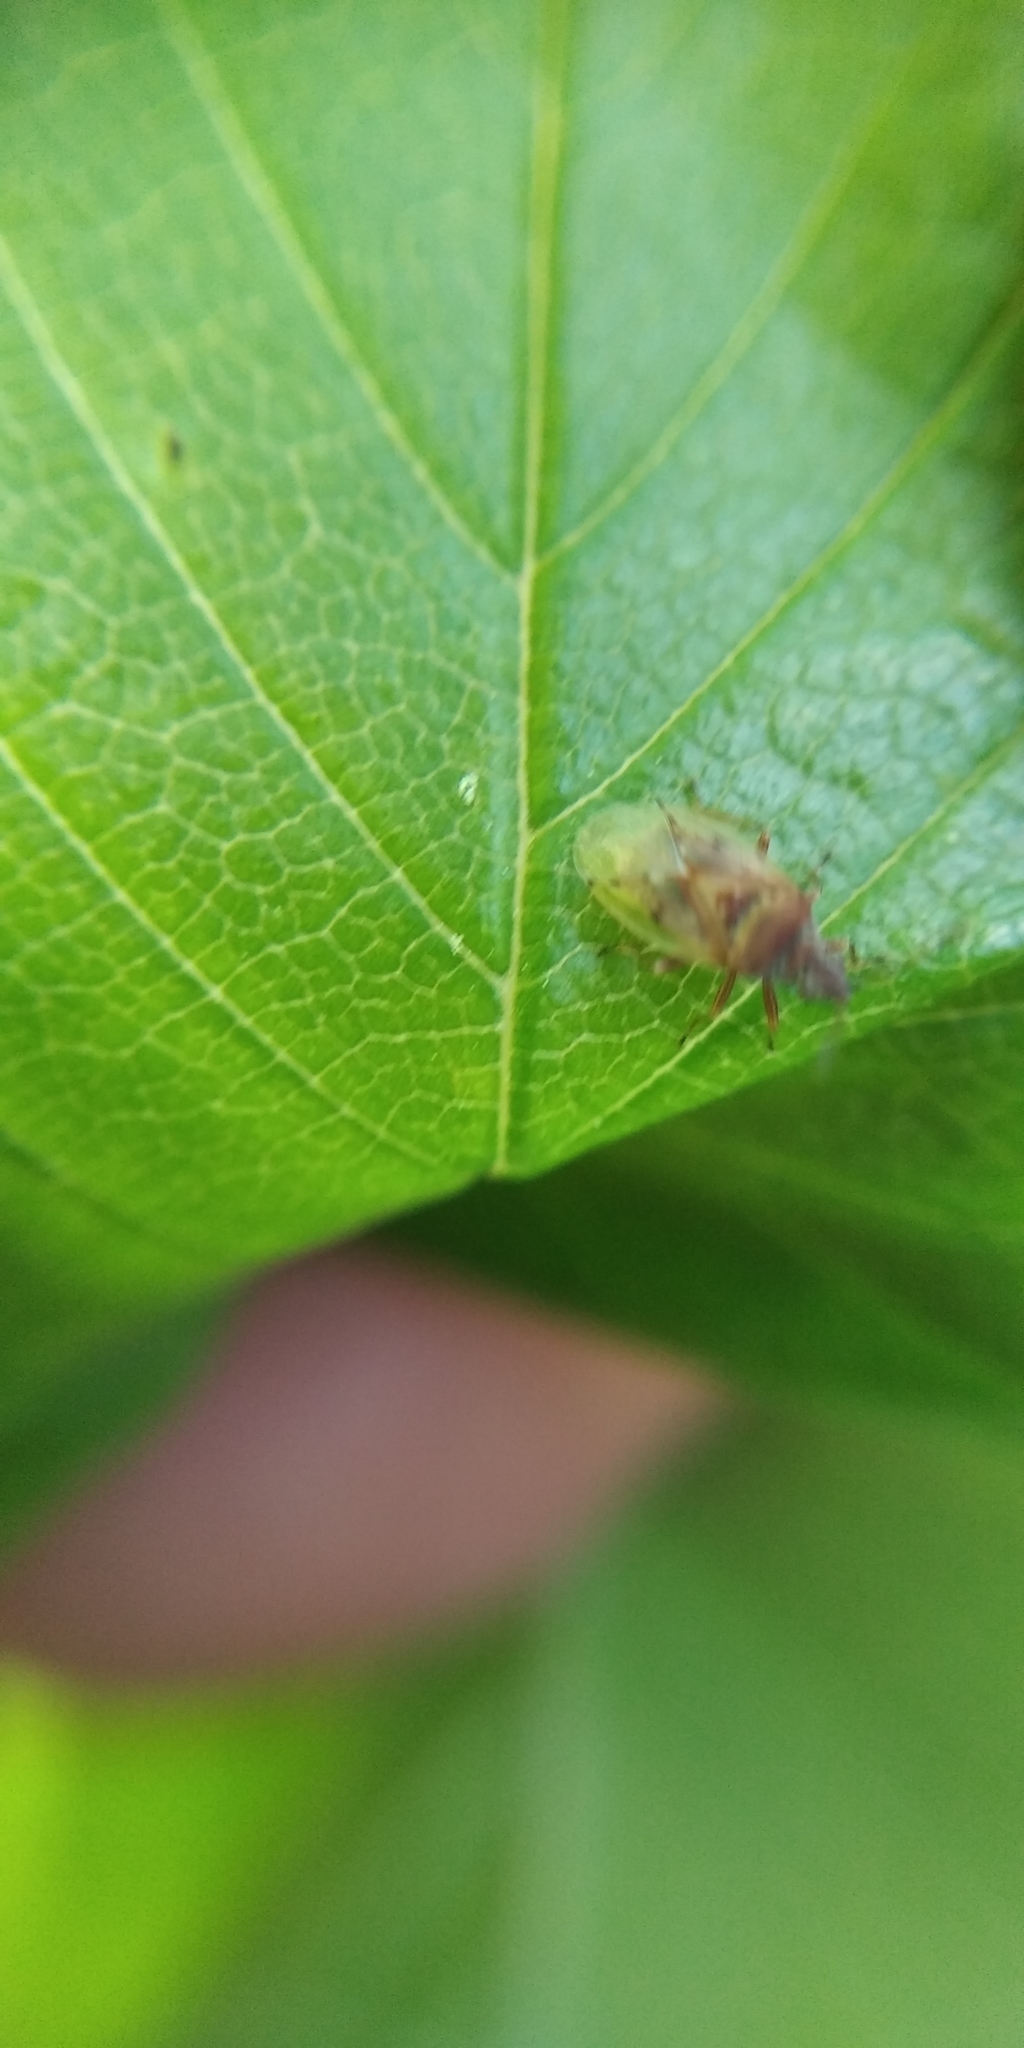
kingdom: Animalia
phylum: Arthropoda
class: Insecta
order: Hemiptera
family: Lygaeidae
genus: Kleidocerys
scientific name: Kleidocerys resedae
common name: Birch catkin bug
